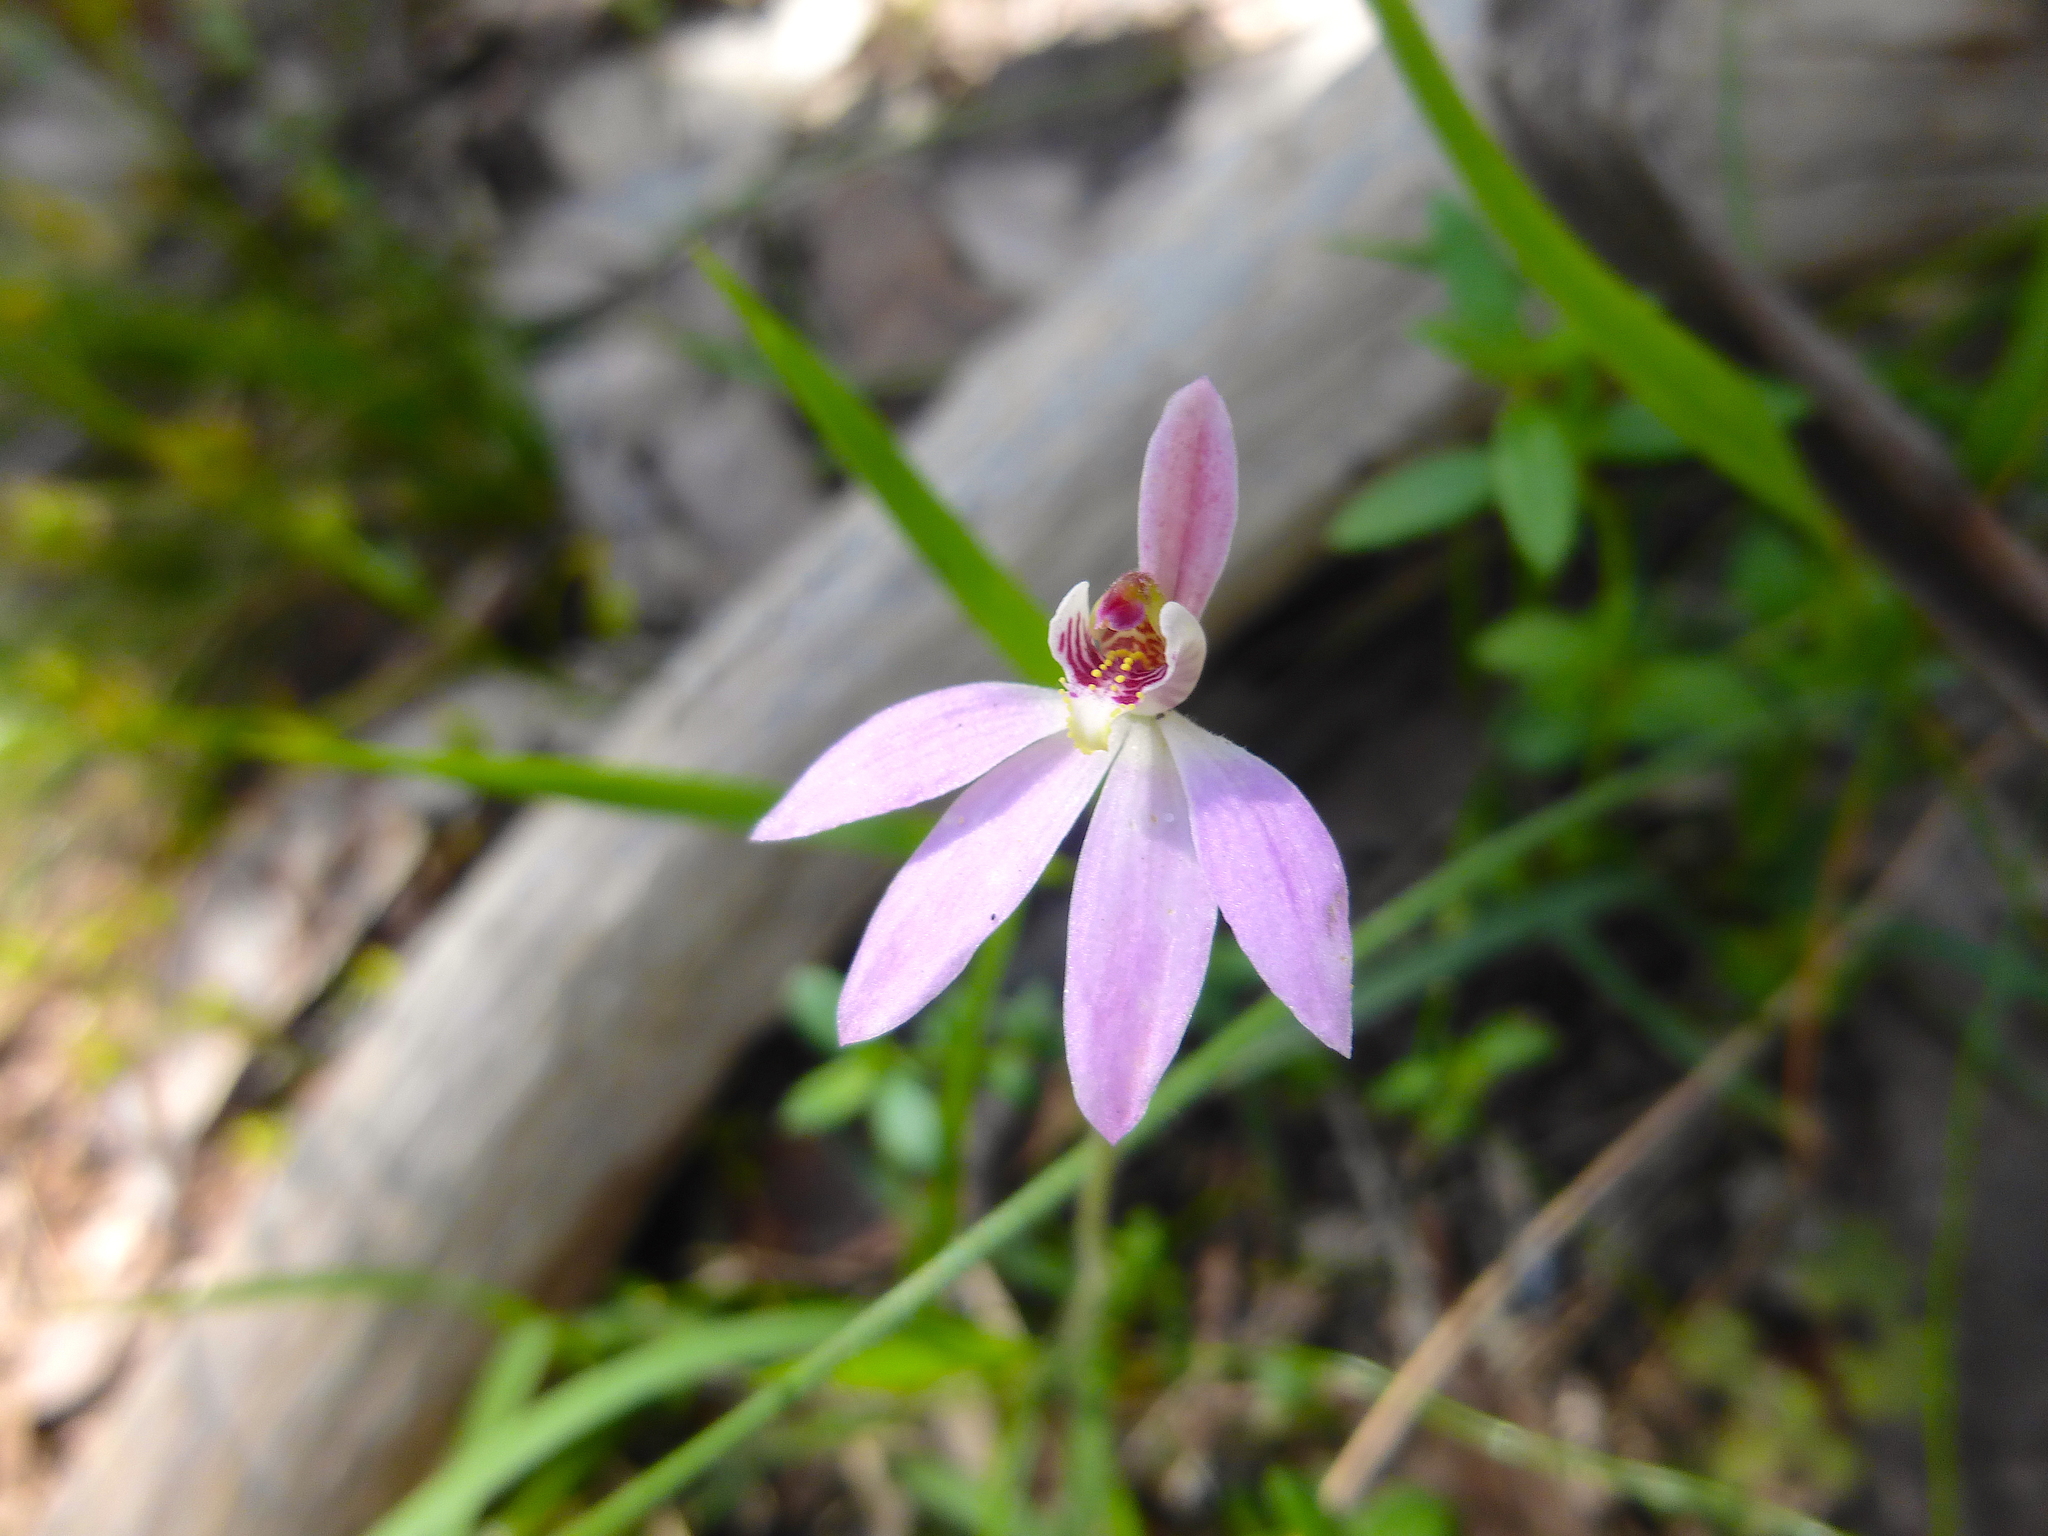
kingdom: Plantae
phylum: Tracheophyta
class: Liliopsida
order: Asparagales
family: Orchidaceae
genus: Caladenia
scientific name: Caladenia carnea
